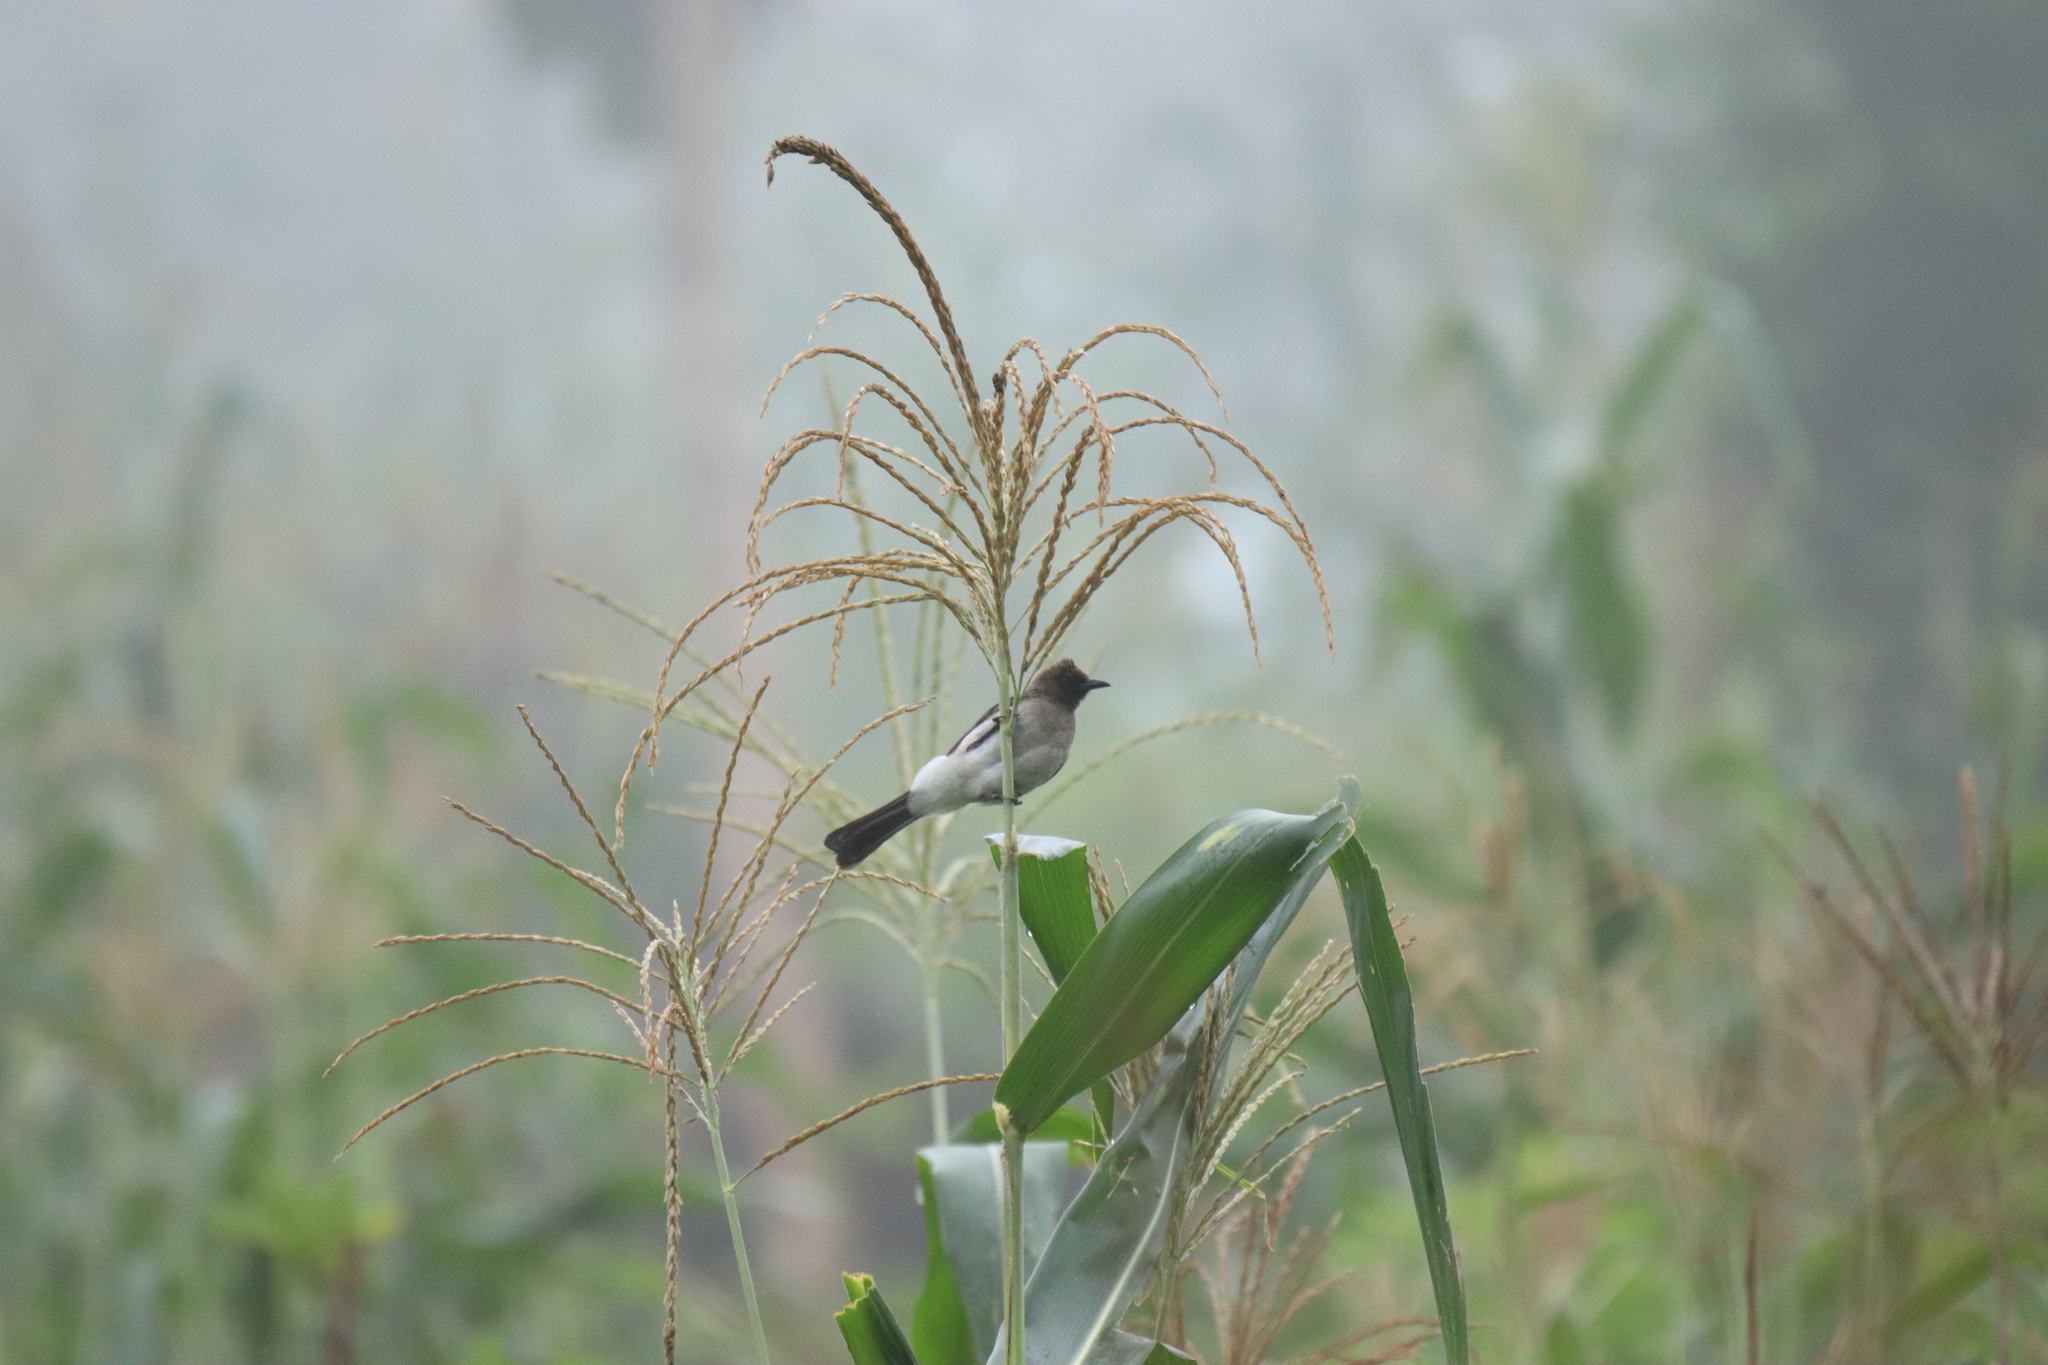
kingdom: Animalia
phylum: Chordata
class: Aves
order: Passeriformes
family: Pycnonotidae
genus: Pycnonotus
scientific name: Pycnonotus barbatus
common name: Common bulbul
